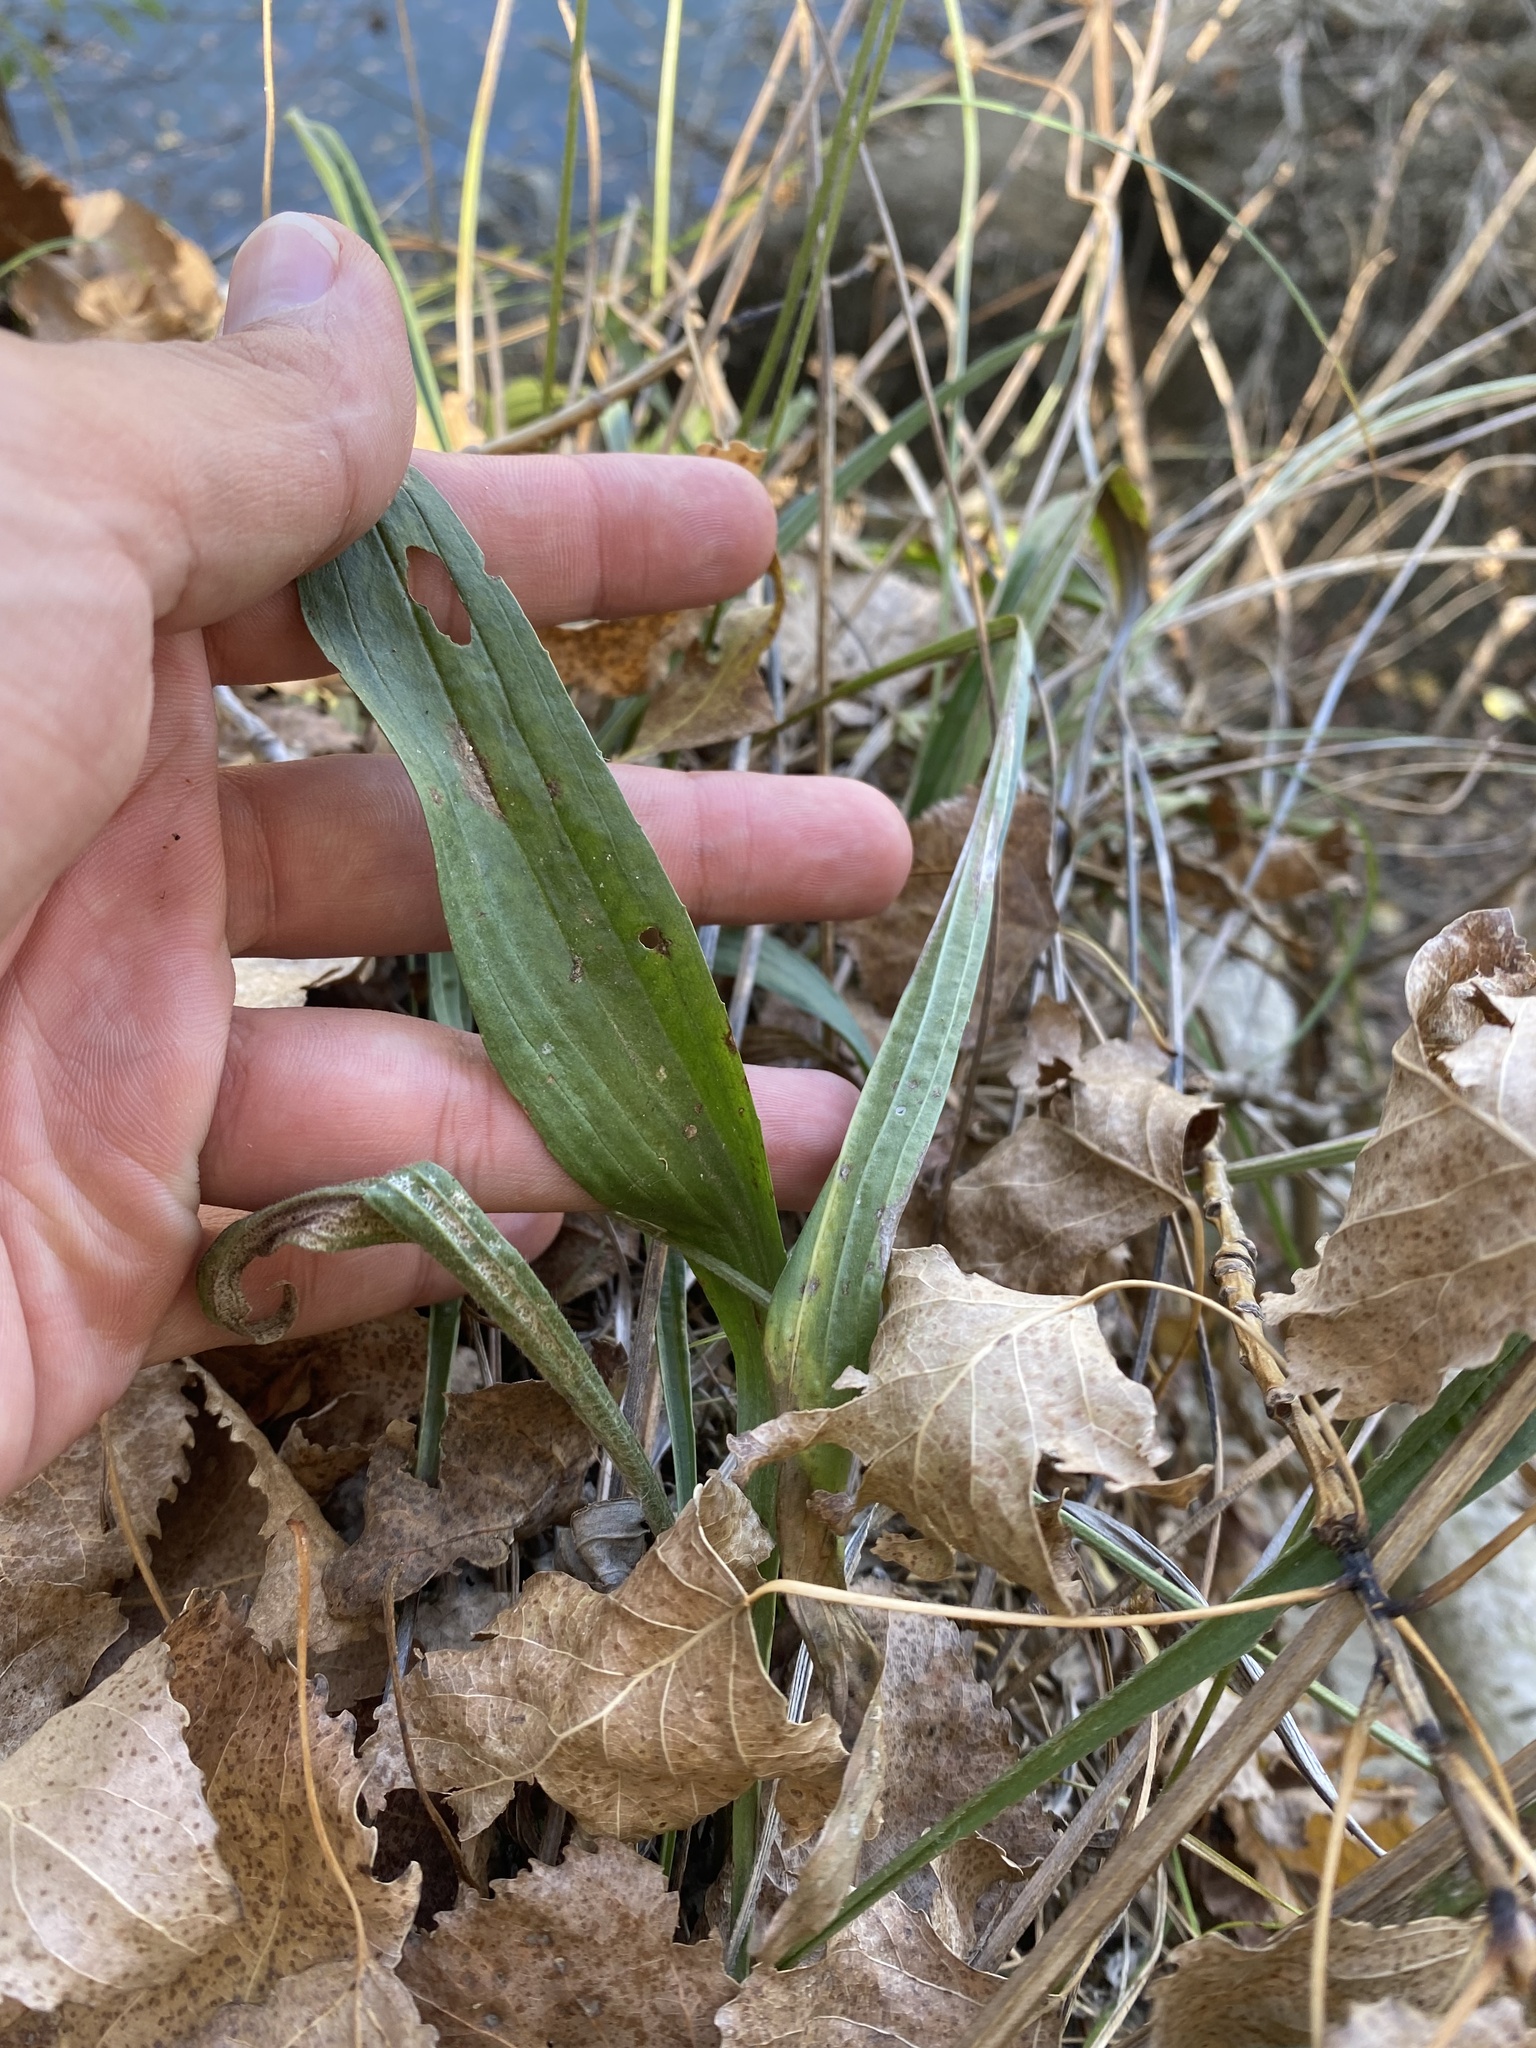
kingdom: Plantae
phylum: Tracheophyta
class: Magnoliopsida
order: Lamiales
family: Plantaginaceae
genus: Plantago
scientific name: Plantago lanceolata
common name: Ribwort plantain
